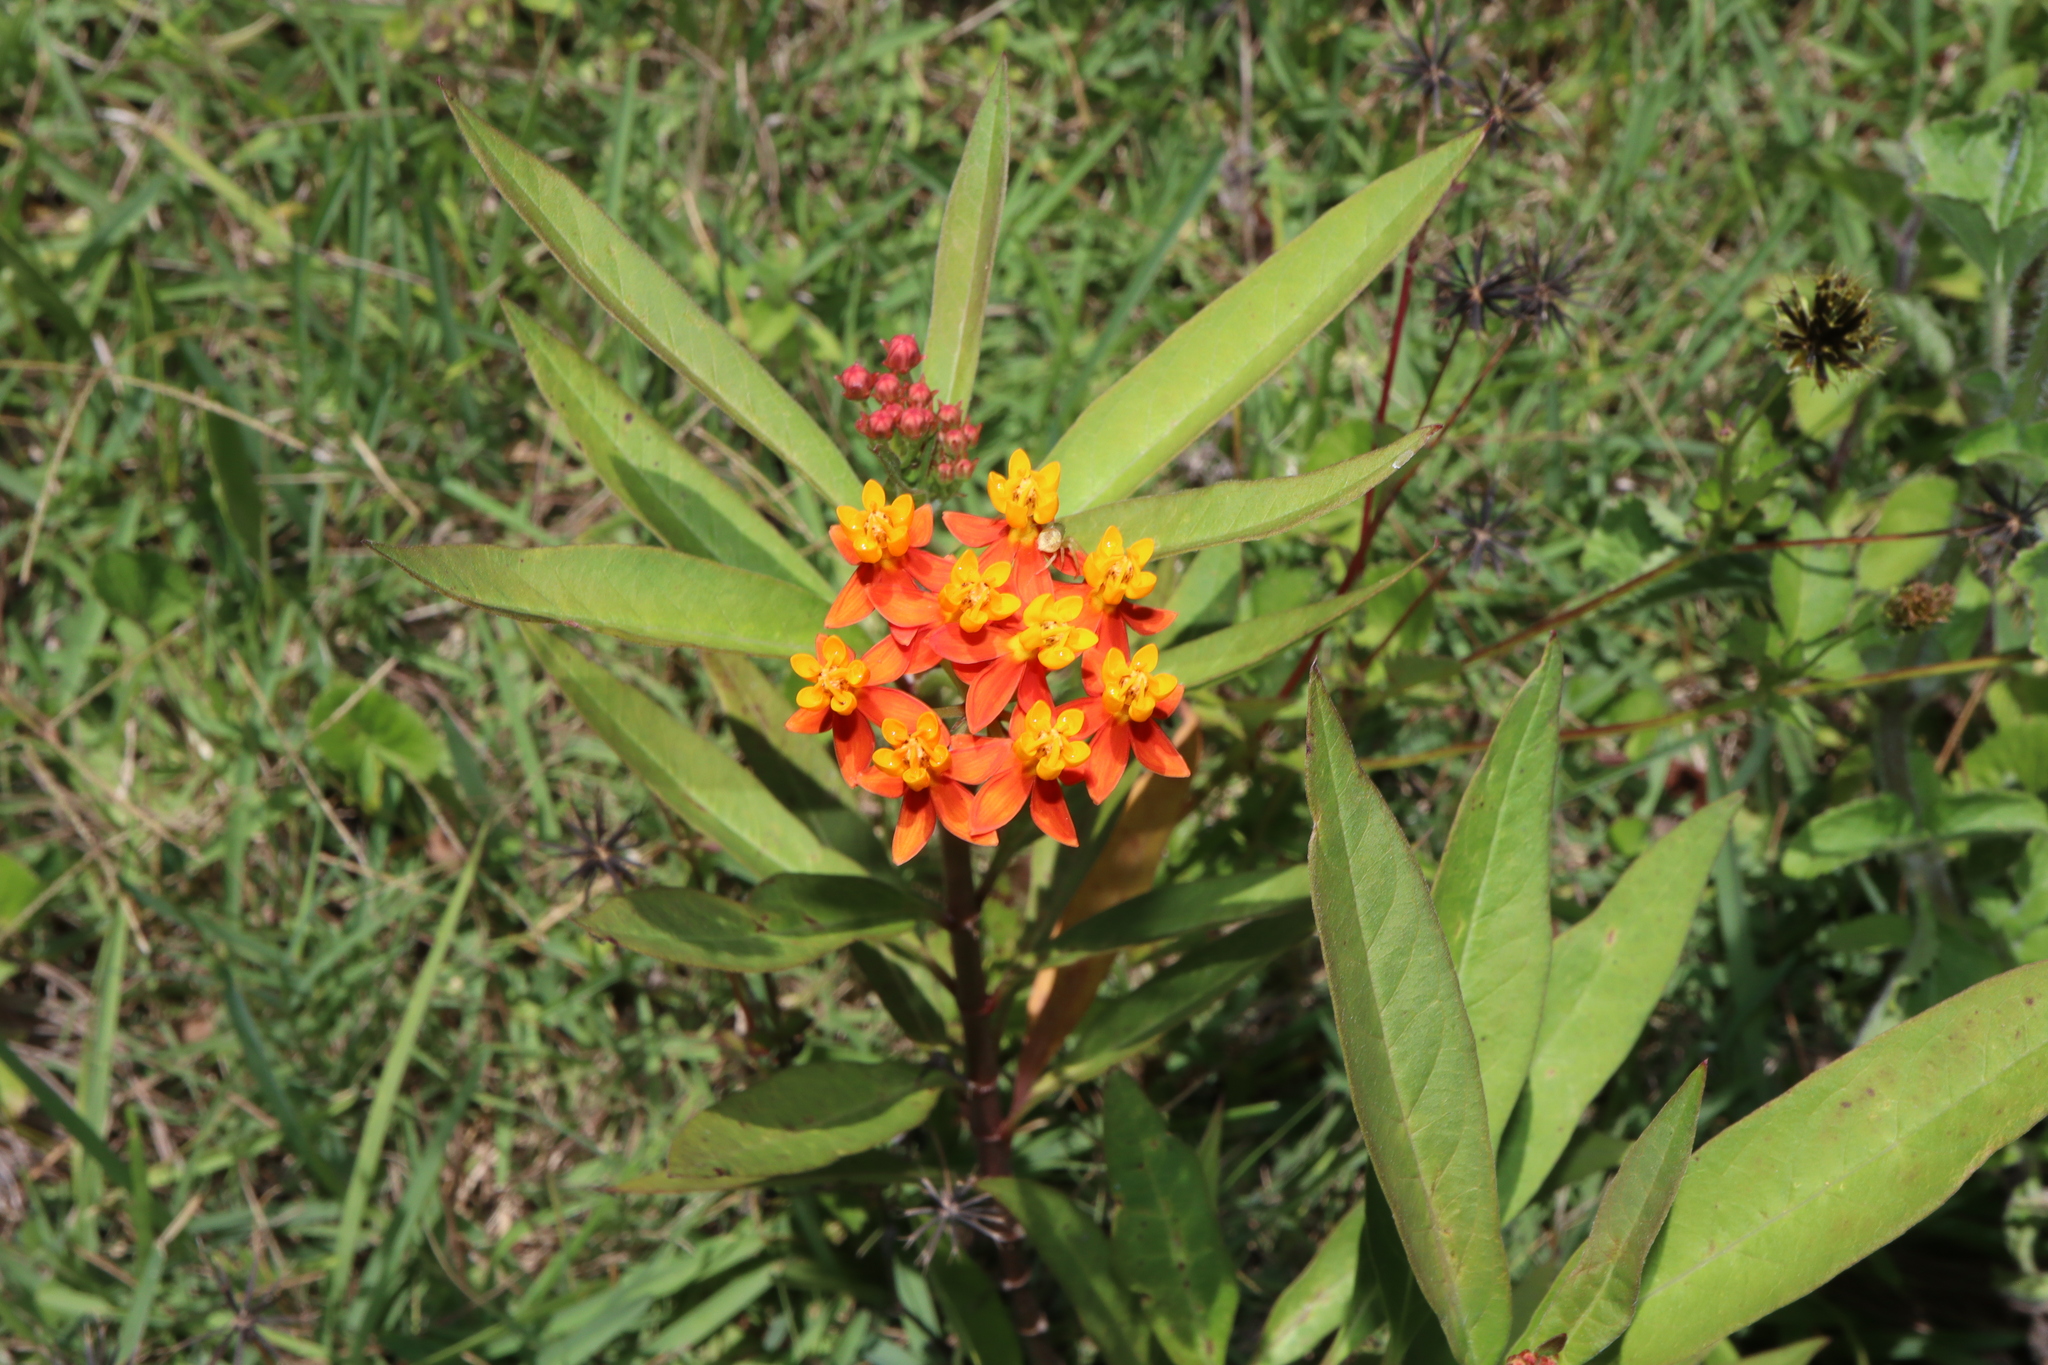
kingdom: Plantae
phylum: Tracheophyta
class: Magnoliopsida
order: Gentianales
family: Apocynaceae
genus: Asclepias
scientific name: Asclepias curassavica
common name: Bloodflower
